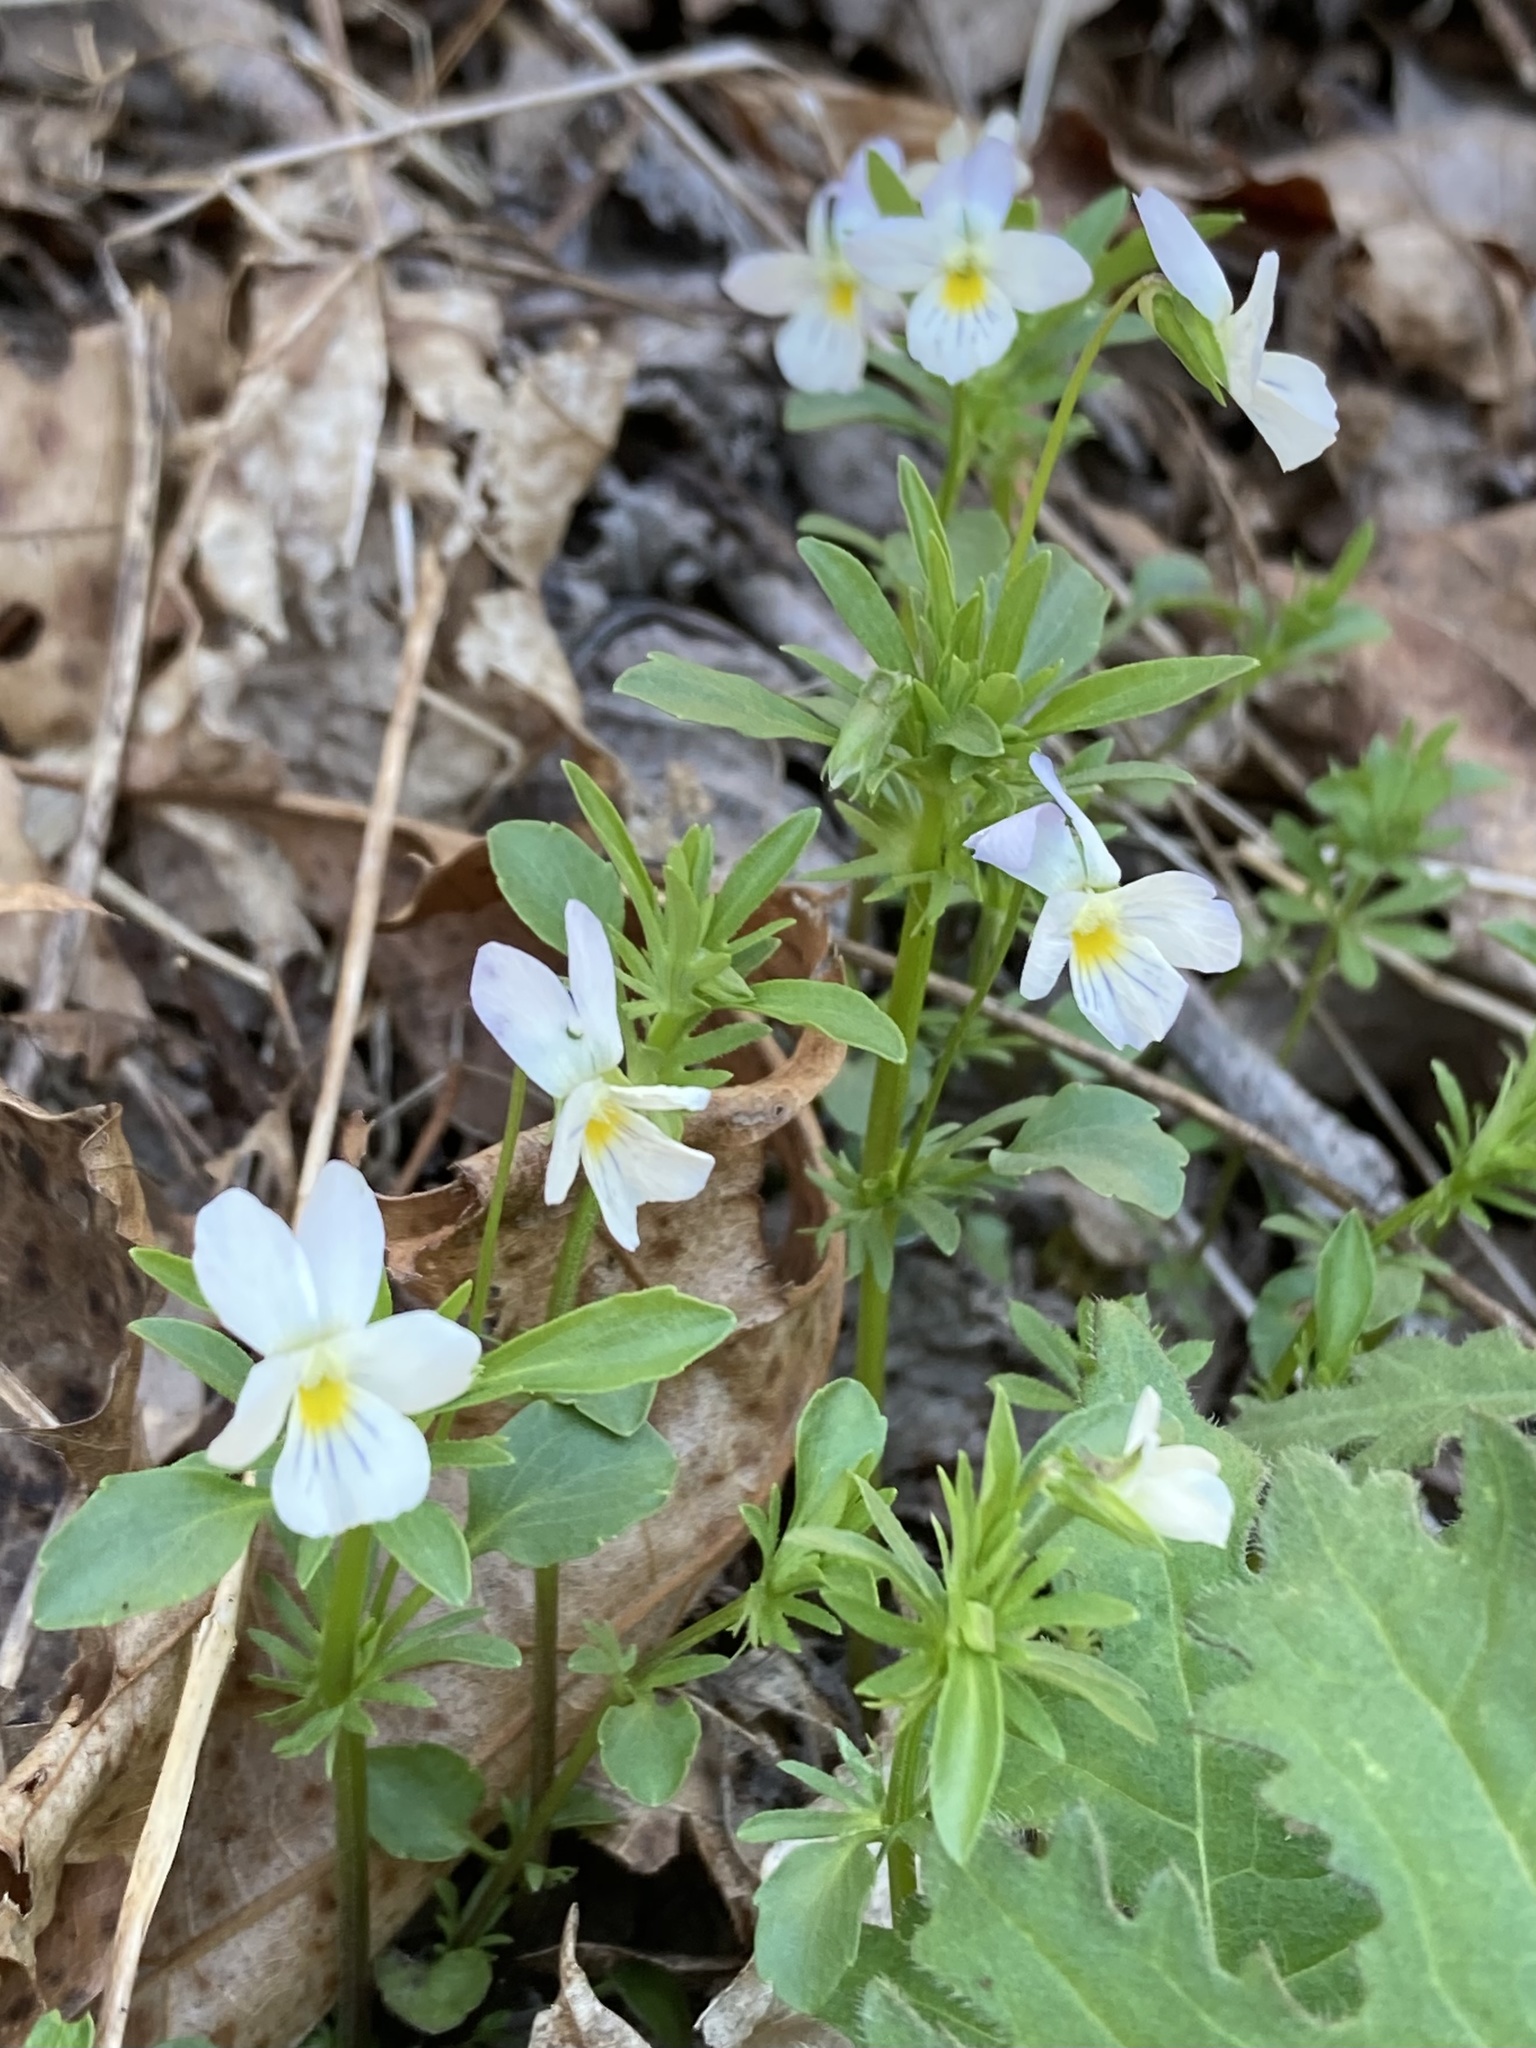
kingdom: Plantae
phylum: Tracheophyta
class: Magnoliopsida
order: Malpighiales
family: Violaceae
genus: Viola
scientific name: Viola rafinesquei
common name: American field pansy
